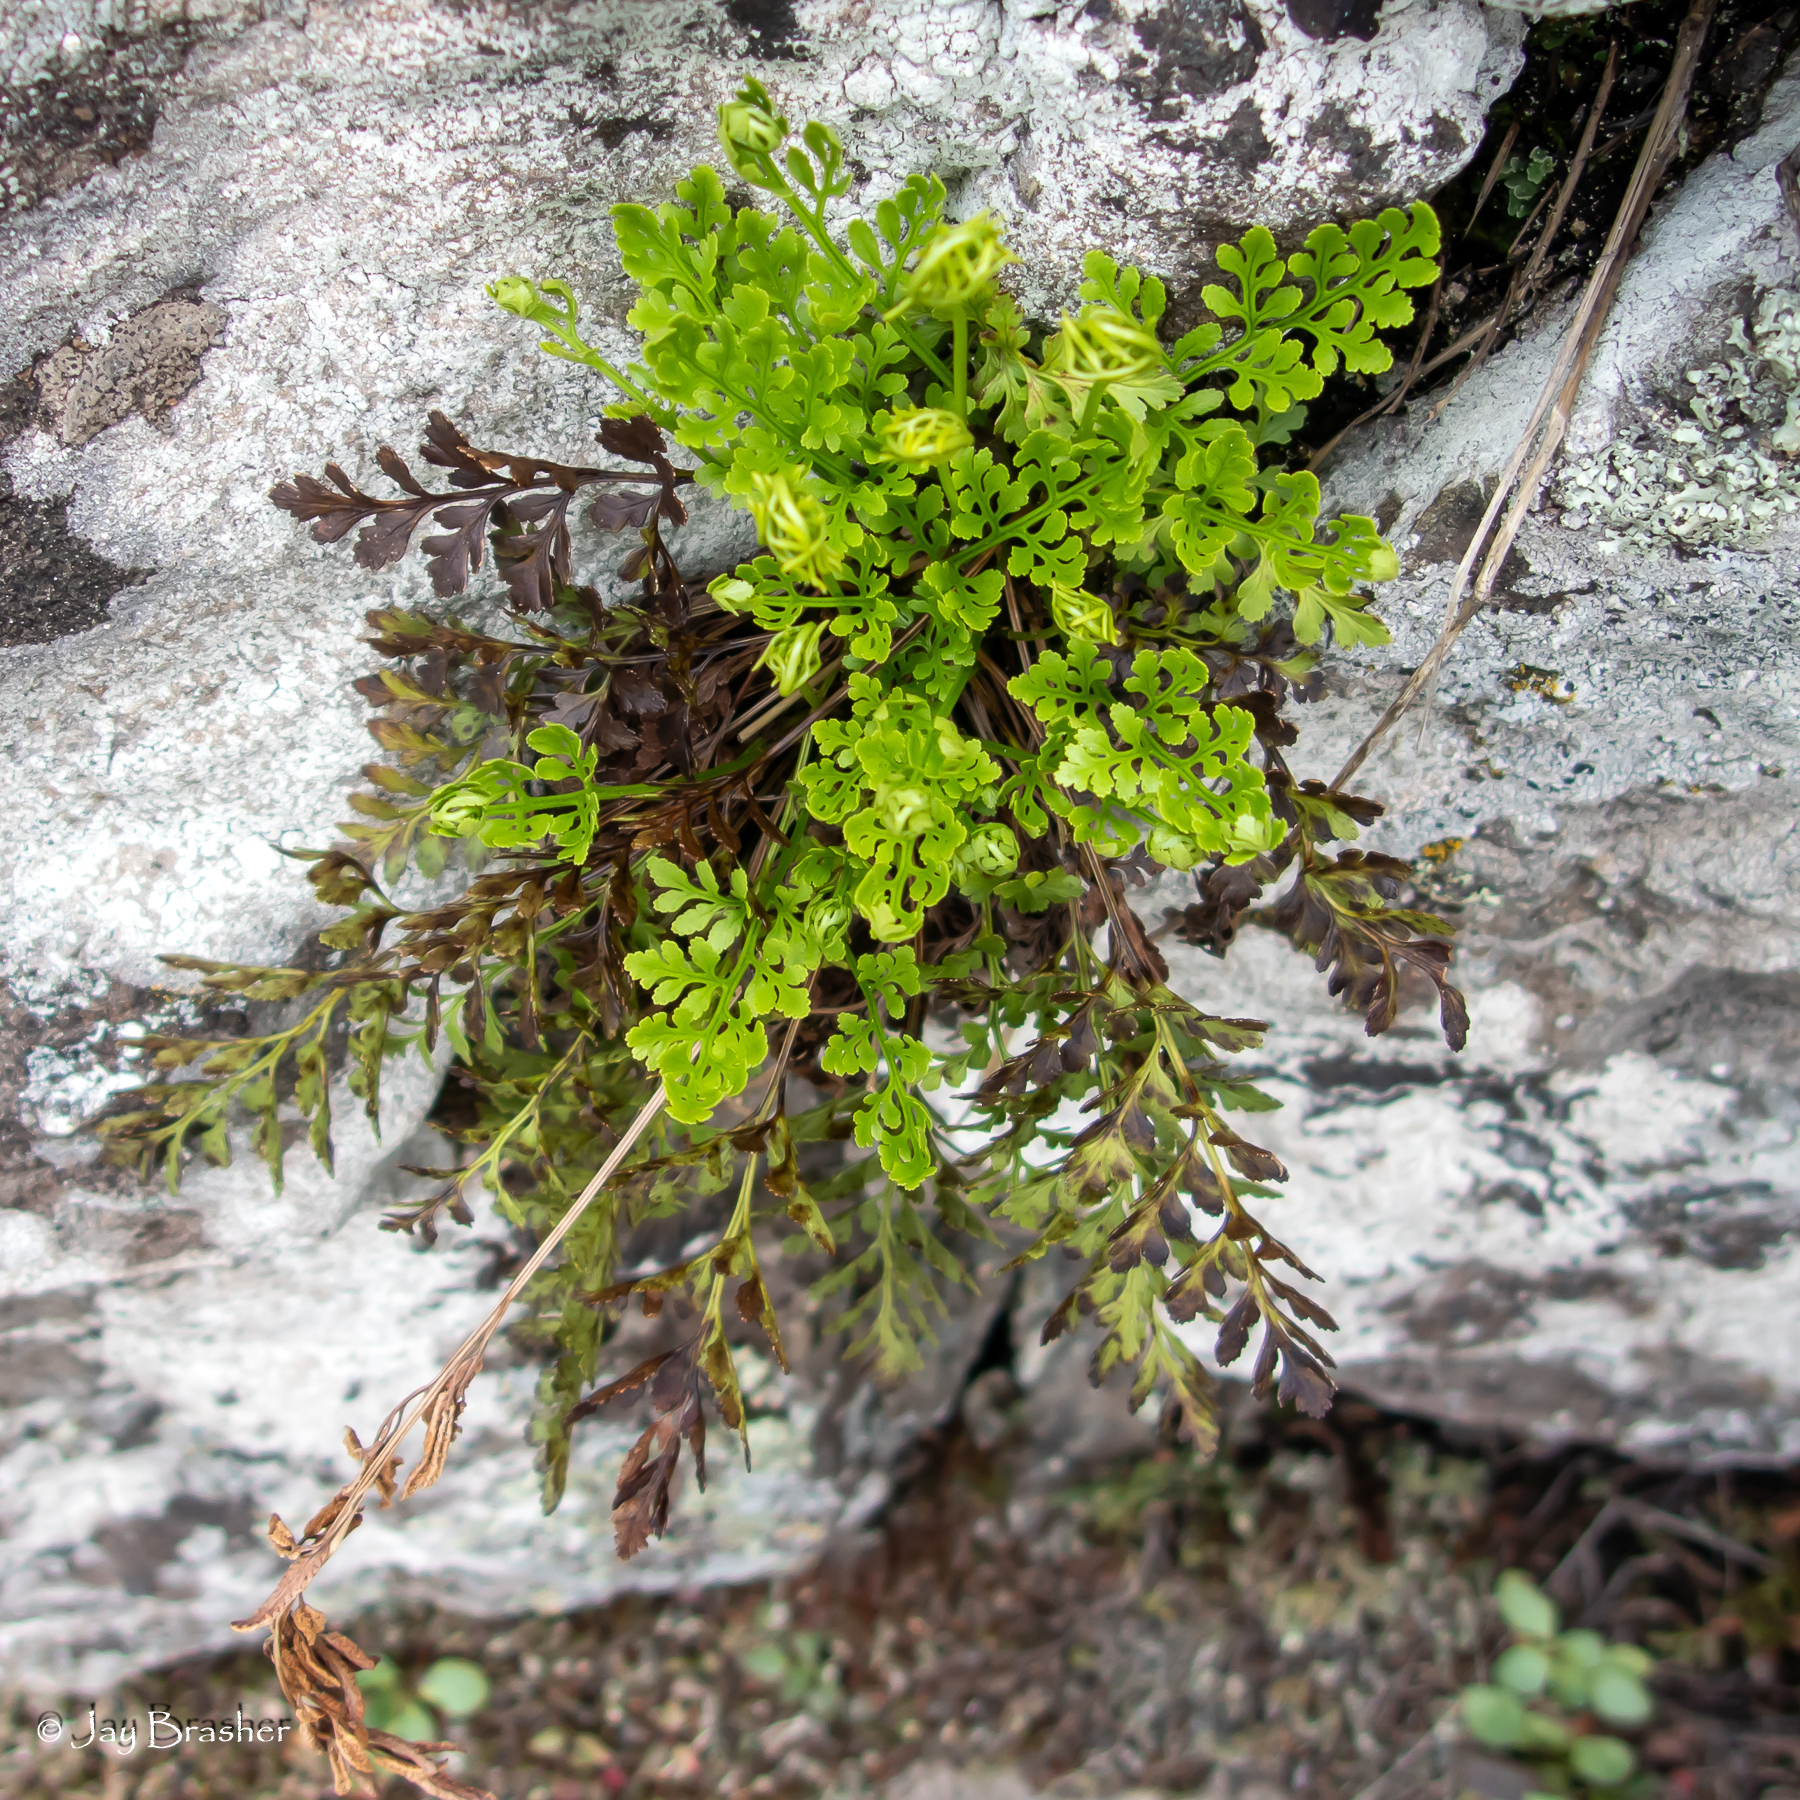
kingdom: Plantae
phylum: Tracheophyta
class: Polypodiopsida
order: Polypodiales
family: Pteridaceae
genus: Cryptogramma
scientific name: Cryptogramma acrostichoides
